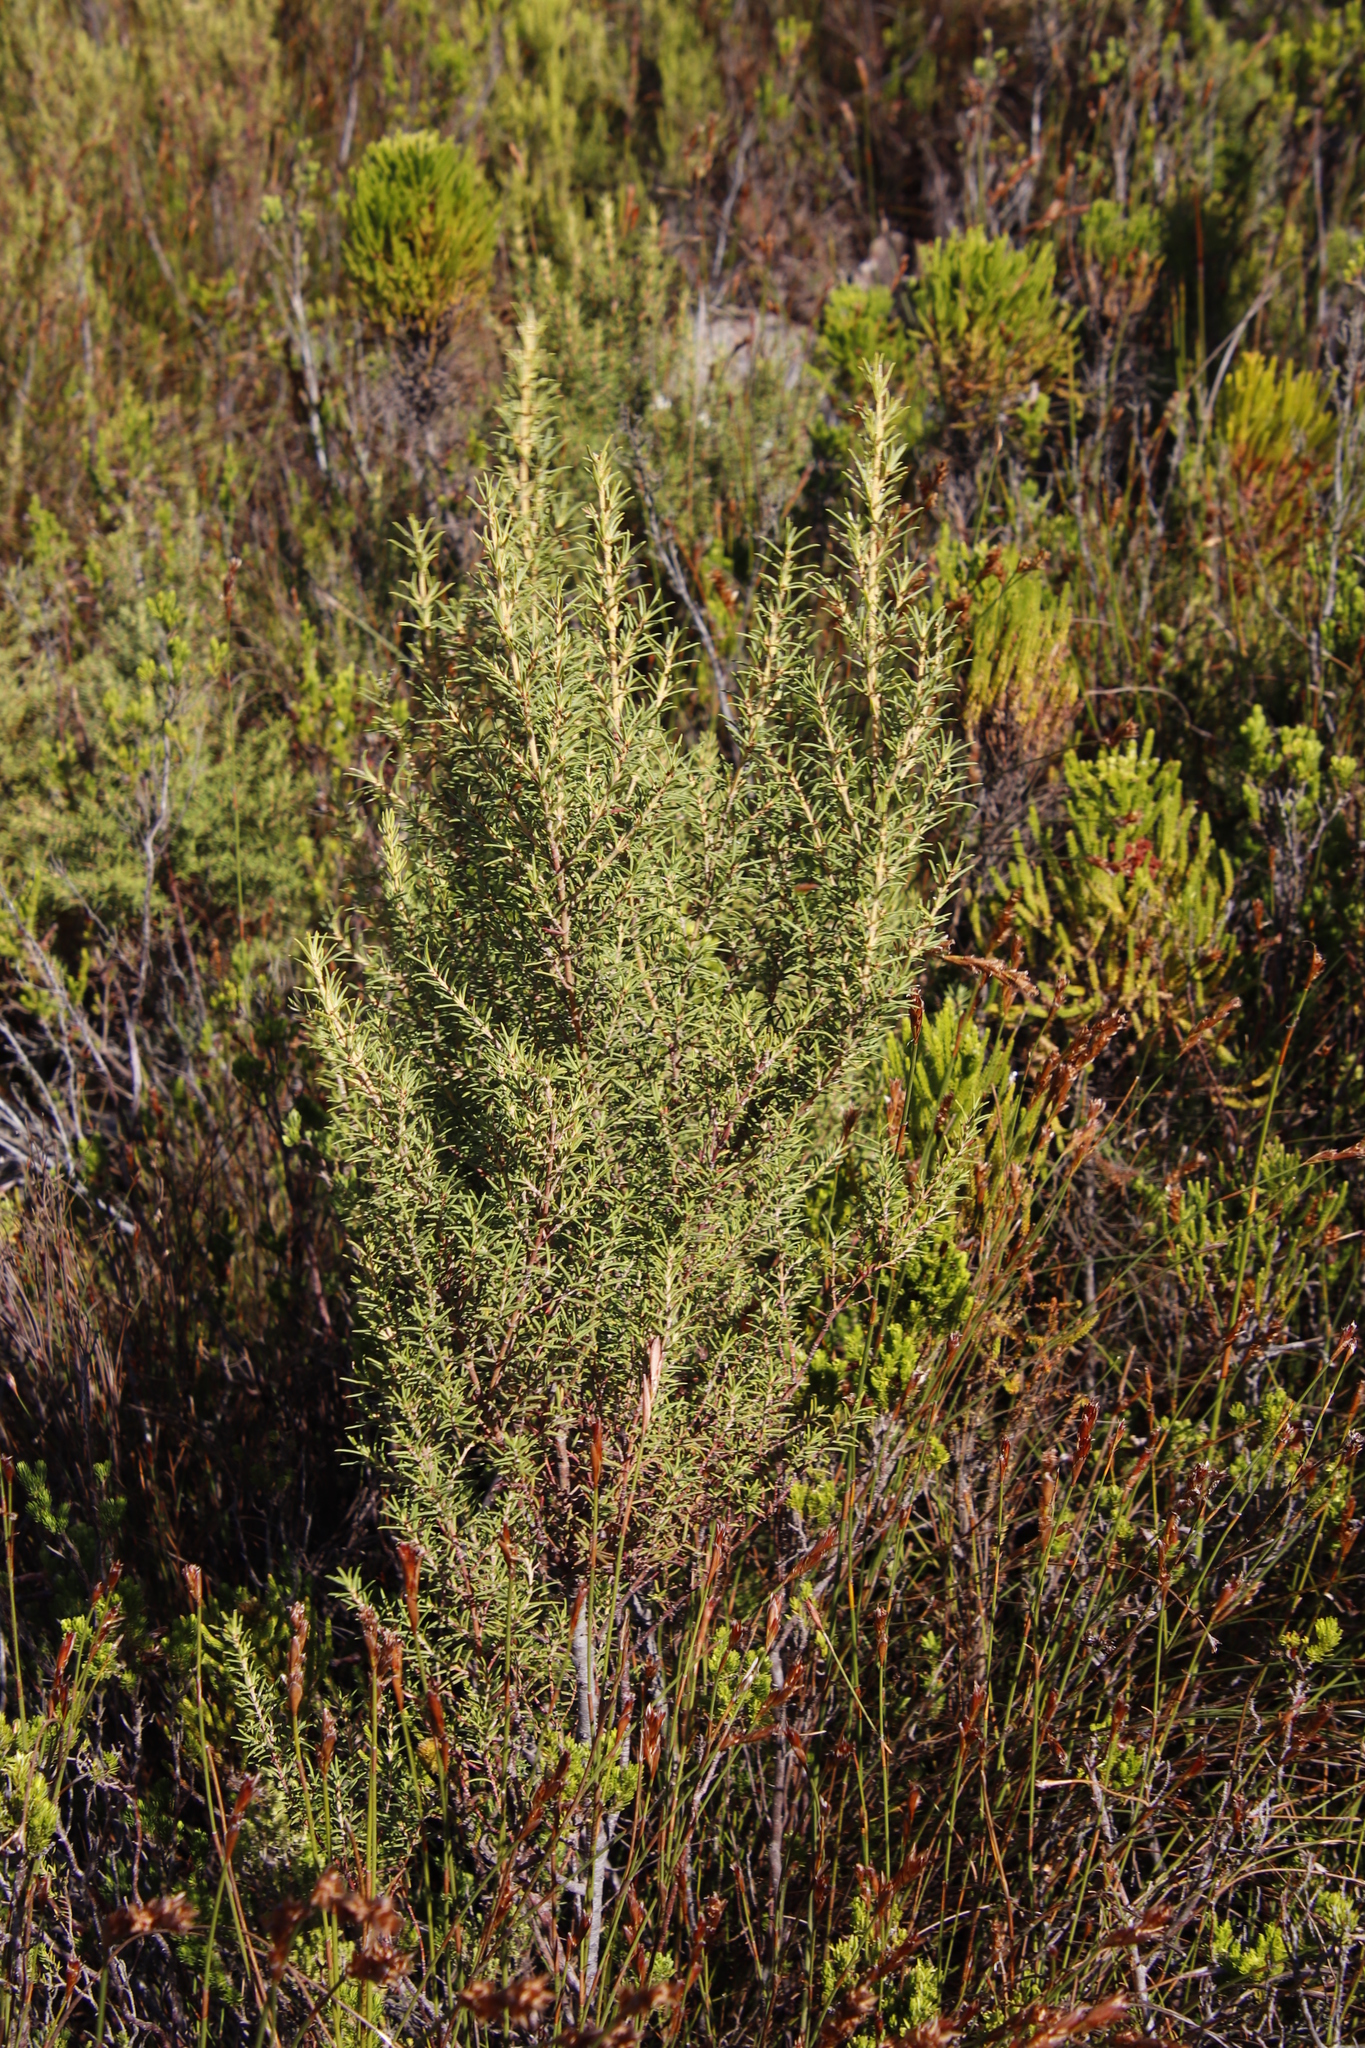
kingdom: Plantae
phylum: Tracheophyta
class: Magnoliopsida
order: Cornales
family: Grubbiaceae
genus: Grubbia
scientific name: Grubbia rosmarinifolia
